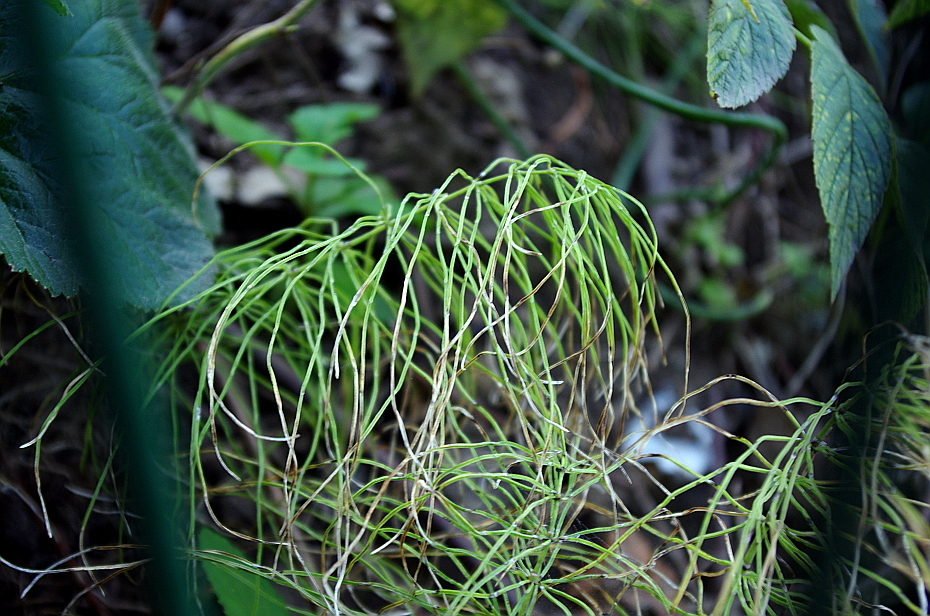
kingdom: Plantae
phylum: Tracheophyta
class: Polypodiopsida
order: Equisetales
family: Equisetaceae
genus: Equisetum
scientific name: Equisetum pratense
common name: Meadow horsetail
